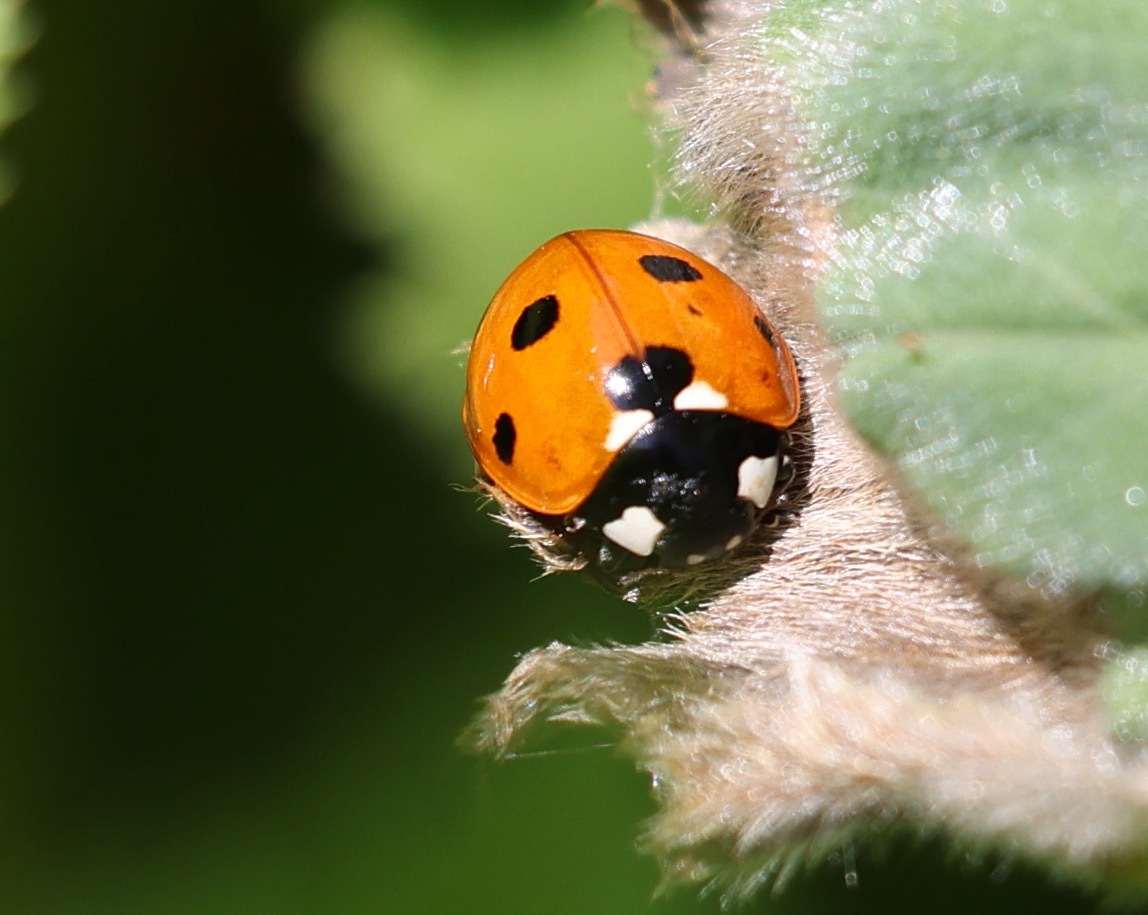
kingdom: Animalia
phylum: Arthropoda
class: Insecta
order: Coleoptera
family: Coccinellidae
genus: Coccinella
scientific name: Coccinella septempunctata
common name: Sevenspotted lady beetle
